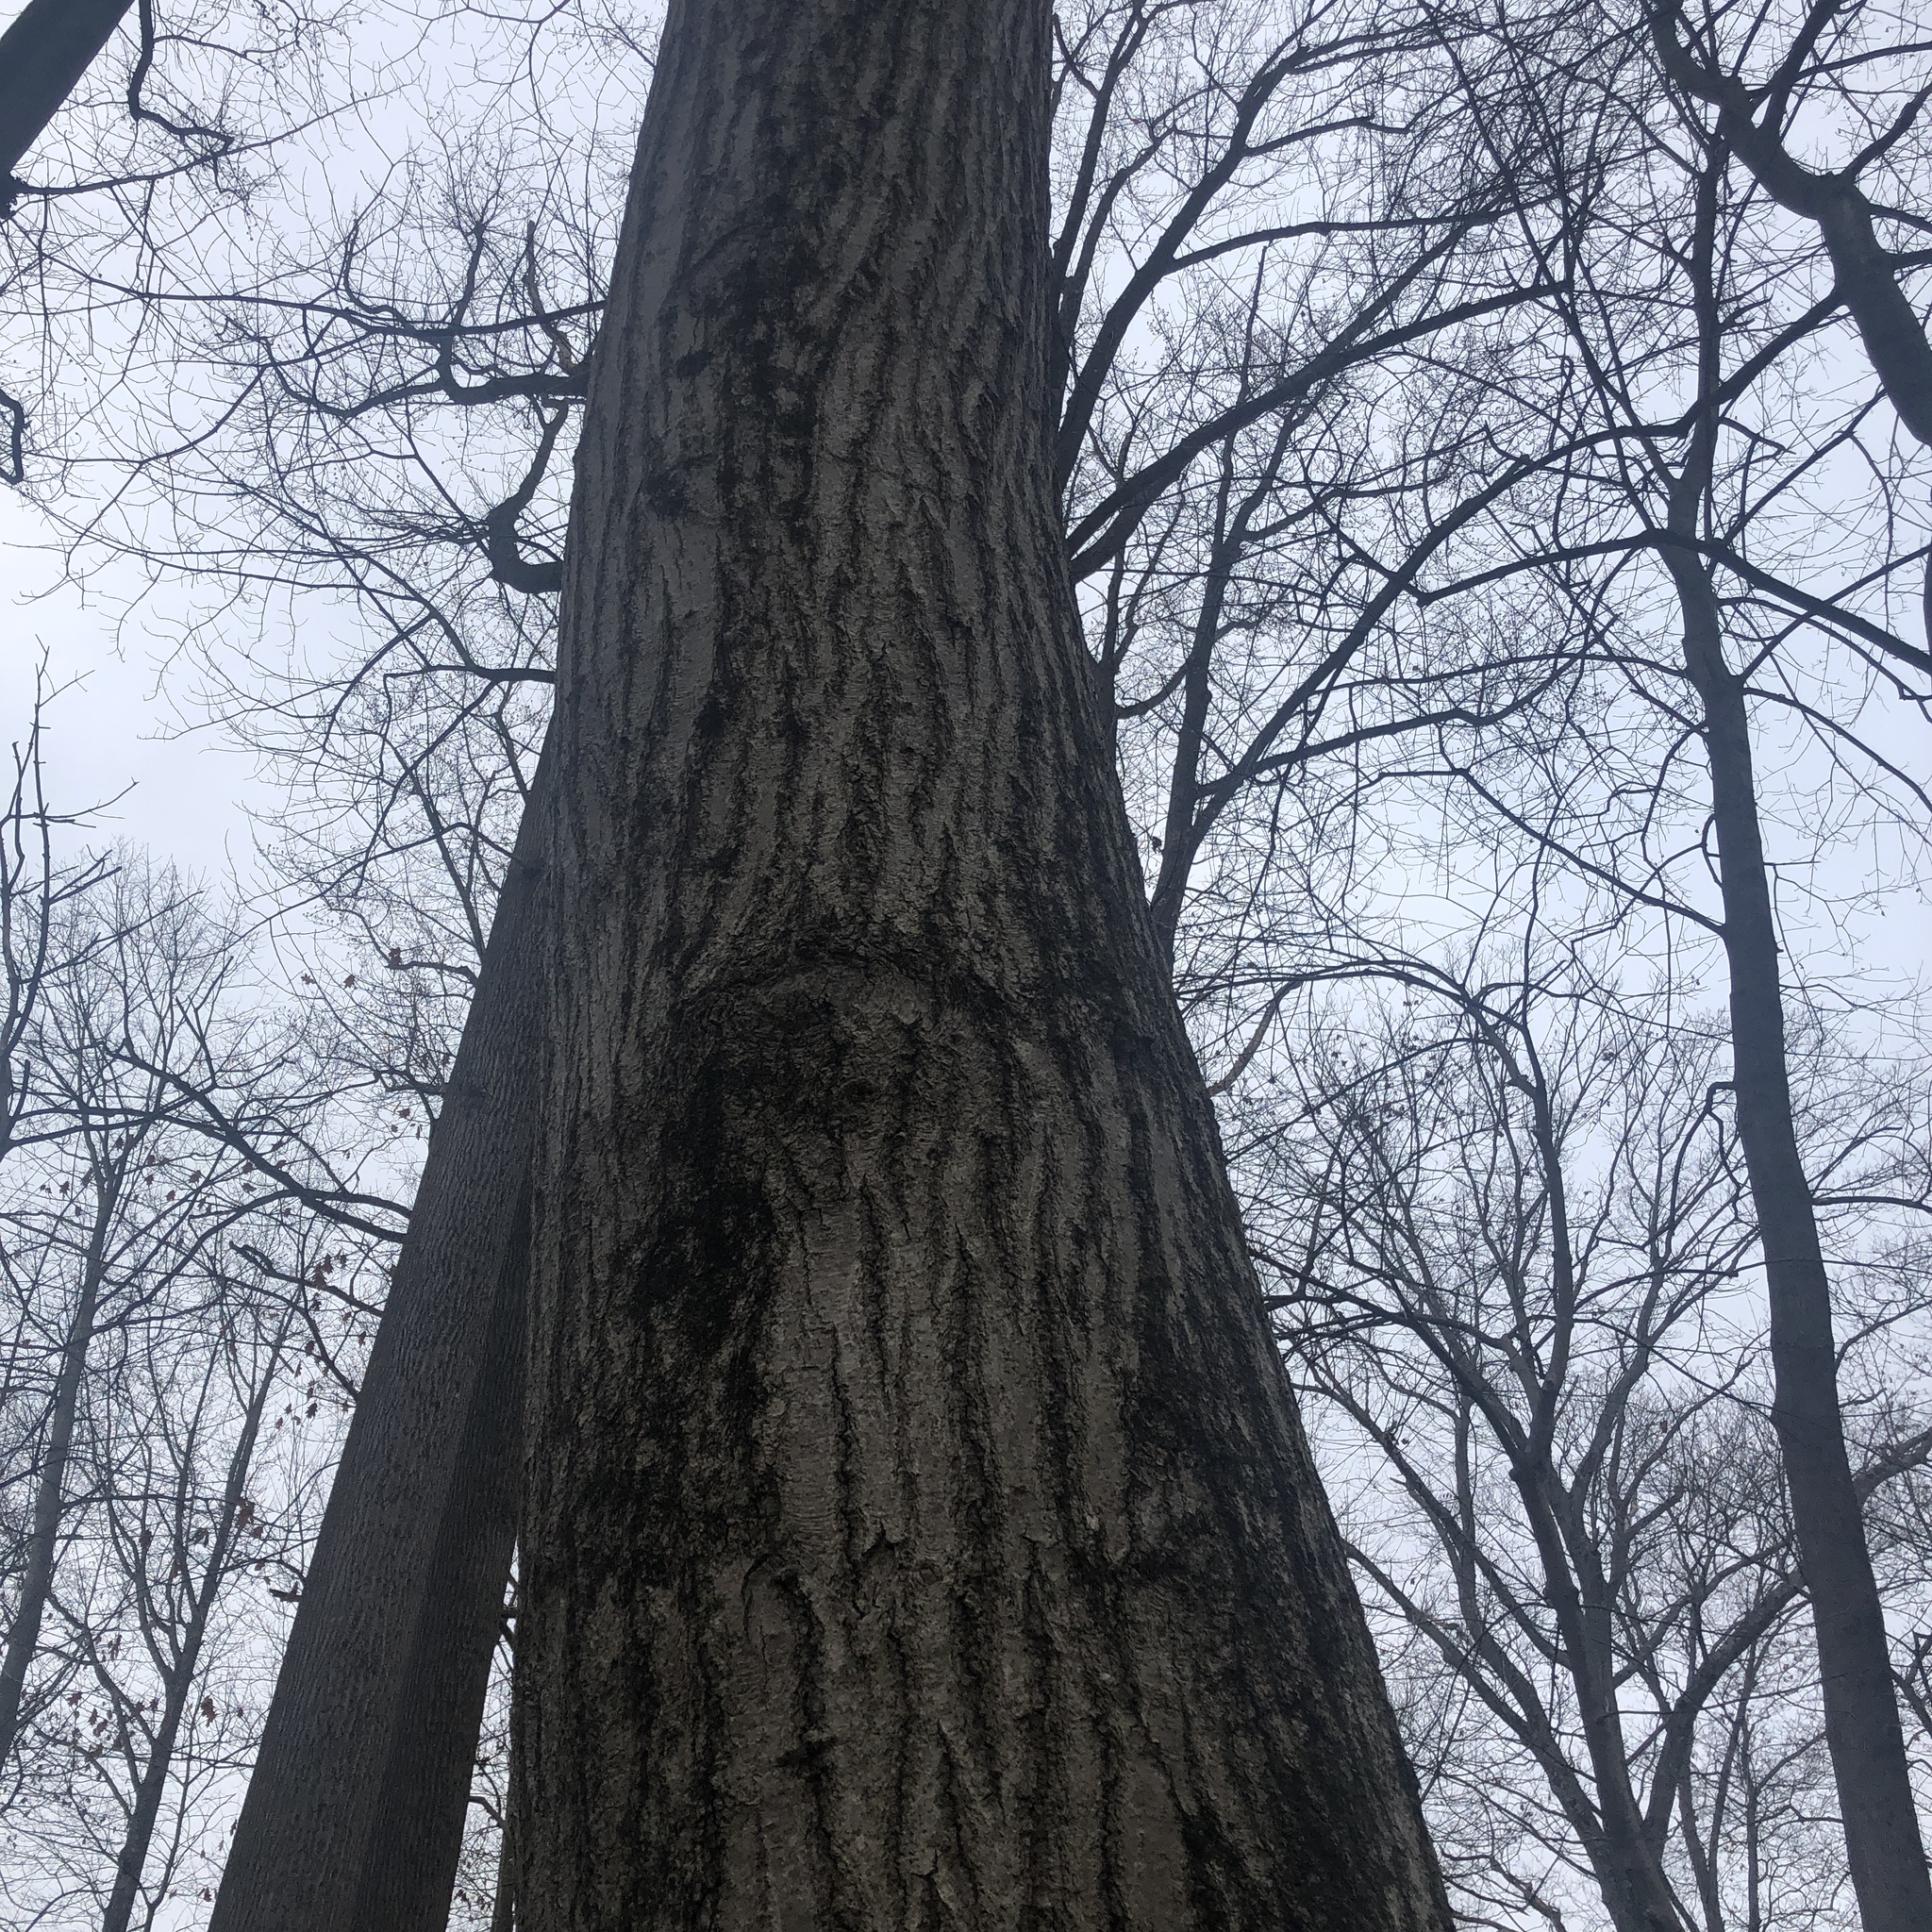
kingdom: Plantae
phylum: Tracheophyta
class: Magnoliopsida
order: Fagales
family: Fagaceae
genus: Quercus
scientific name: Quercus rubra
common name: Red oak
